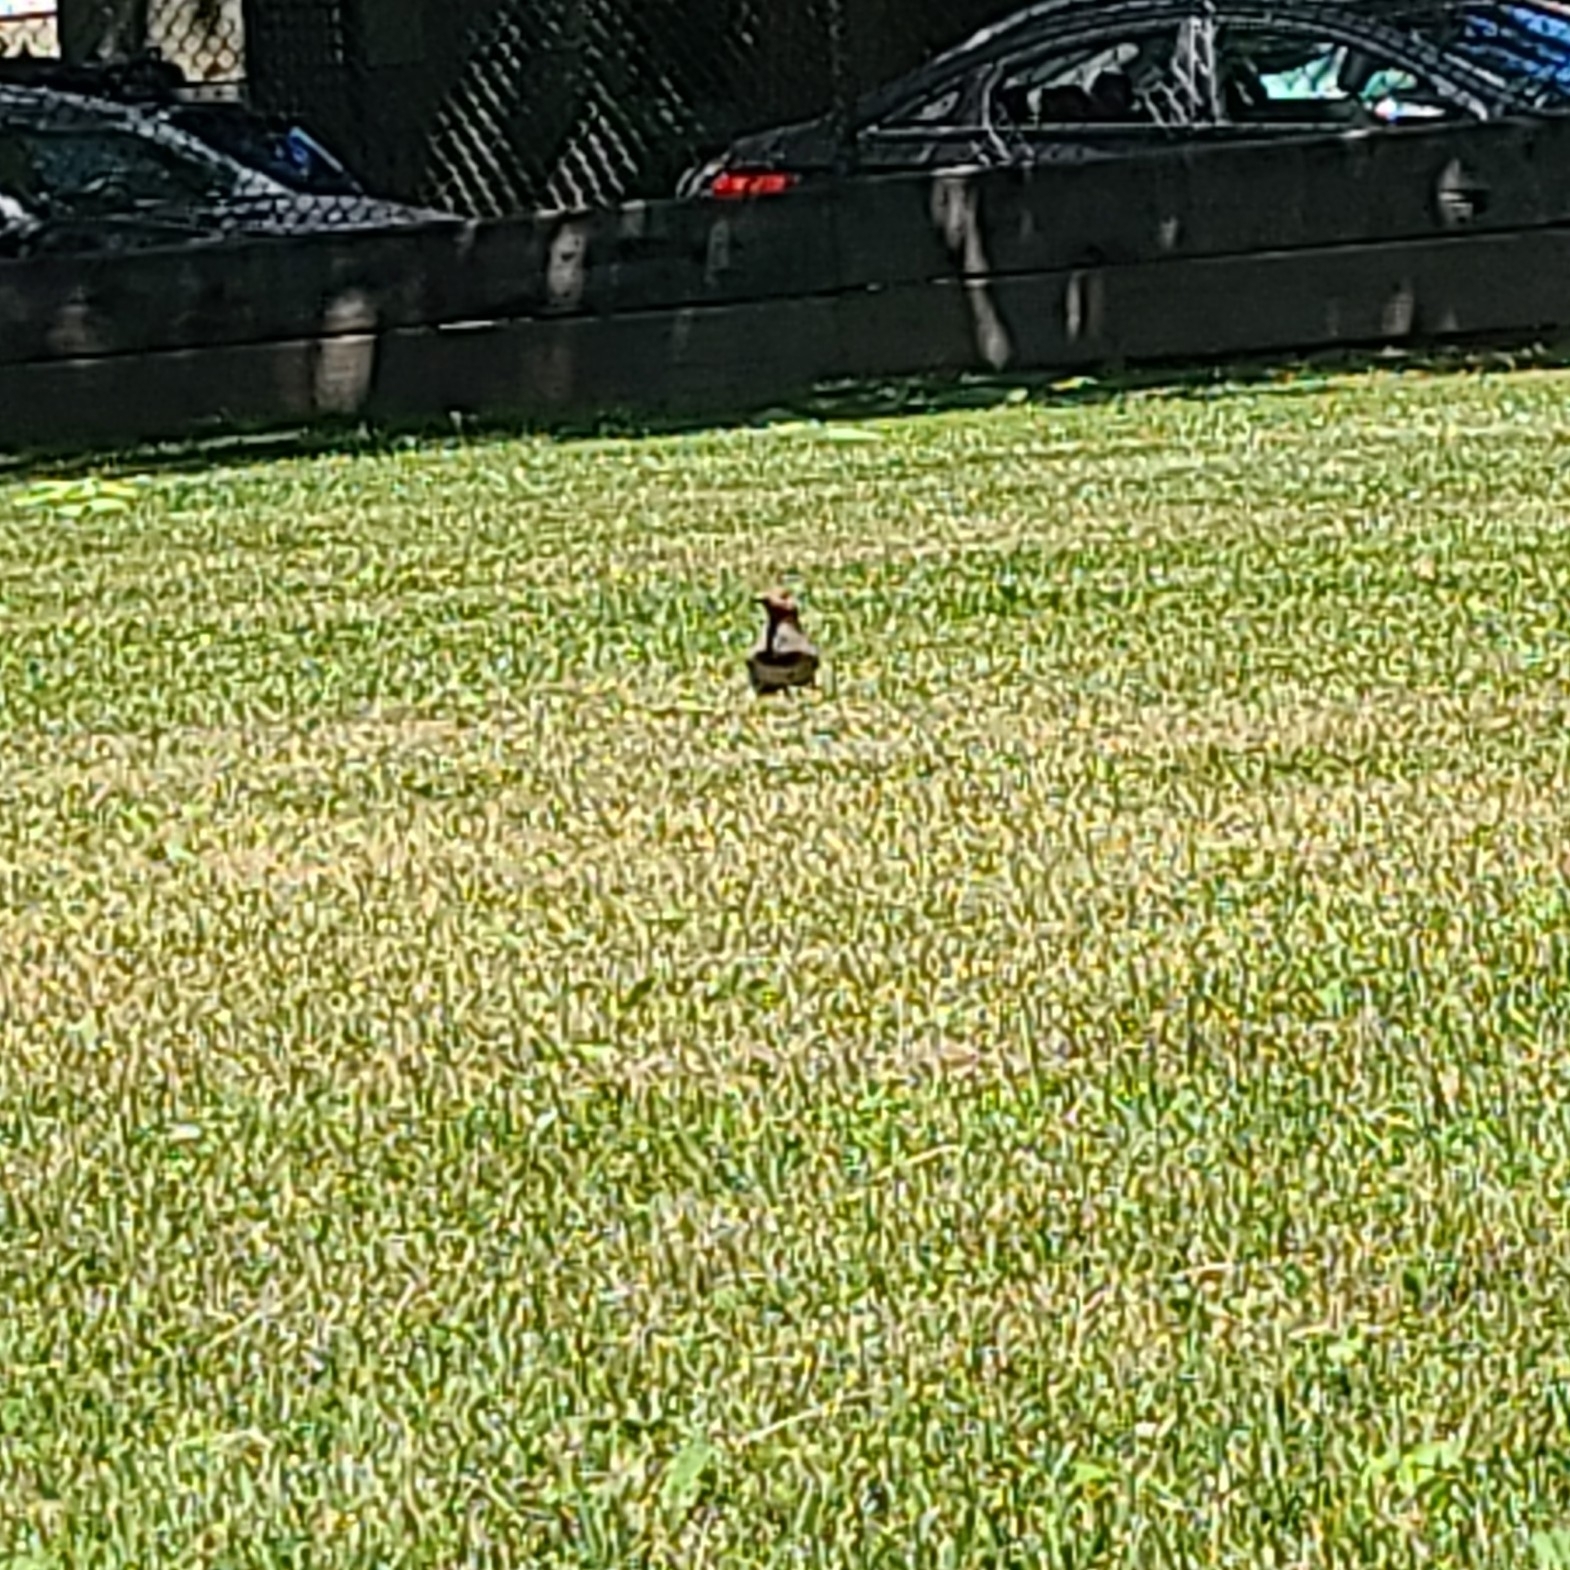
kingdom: Animalia
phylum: Chordata
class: Aves
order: Piciformes
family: Picidae
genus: Colaptes
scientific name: Colaptes auratus
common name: Northern flicker
